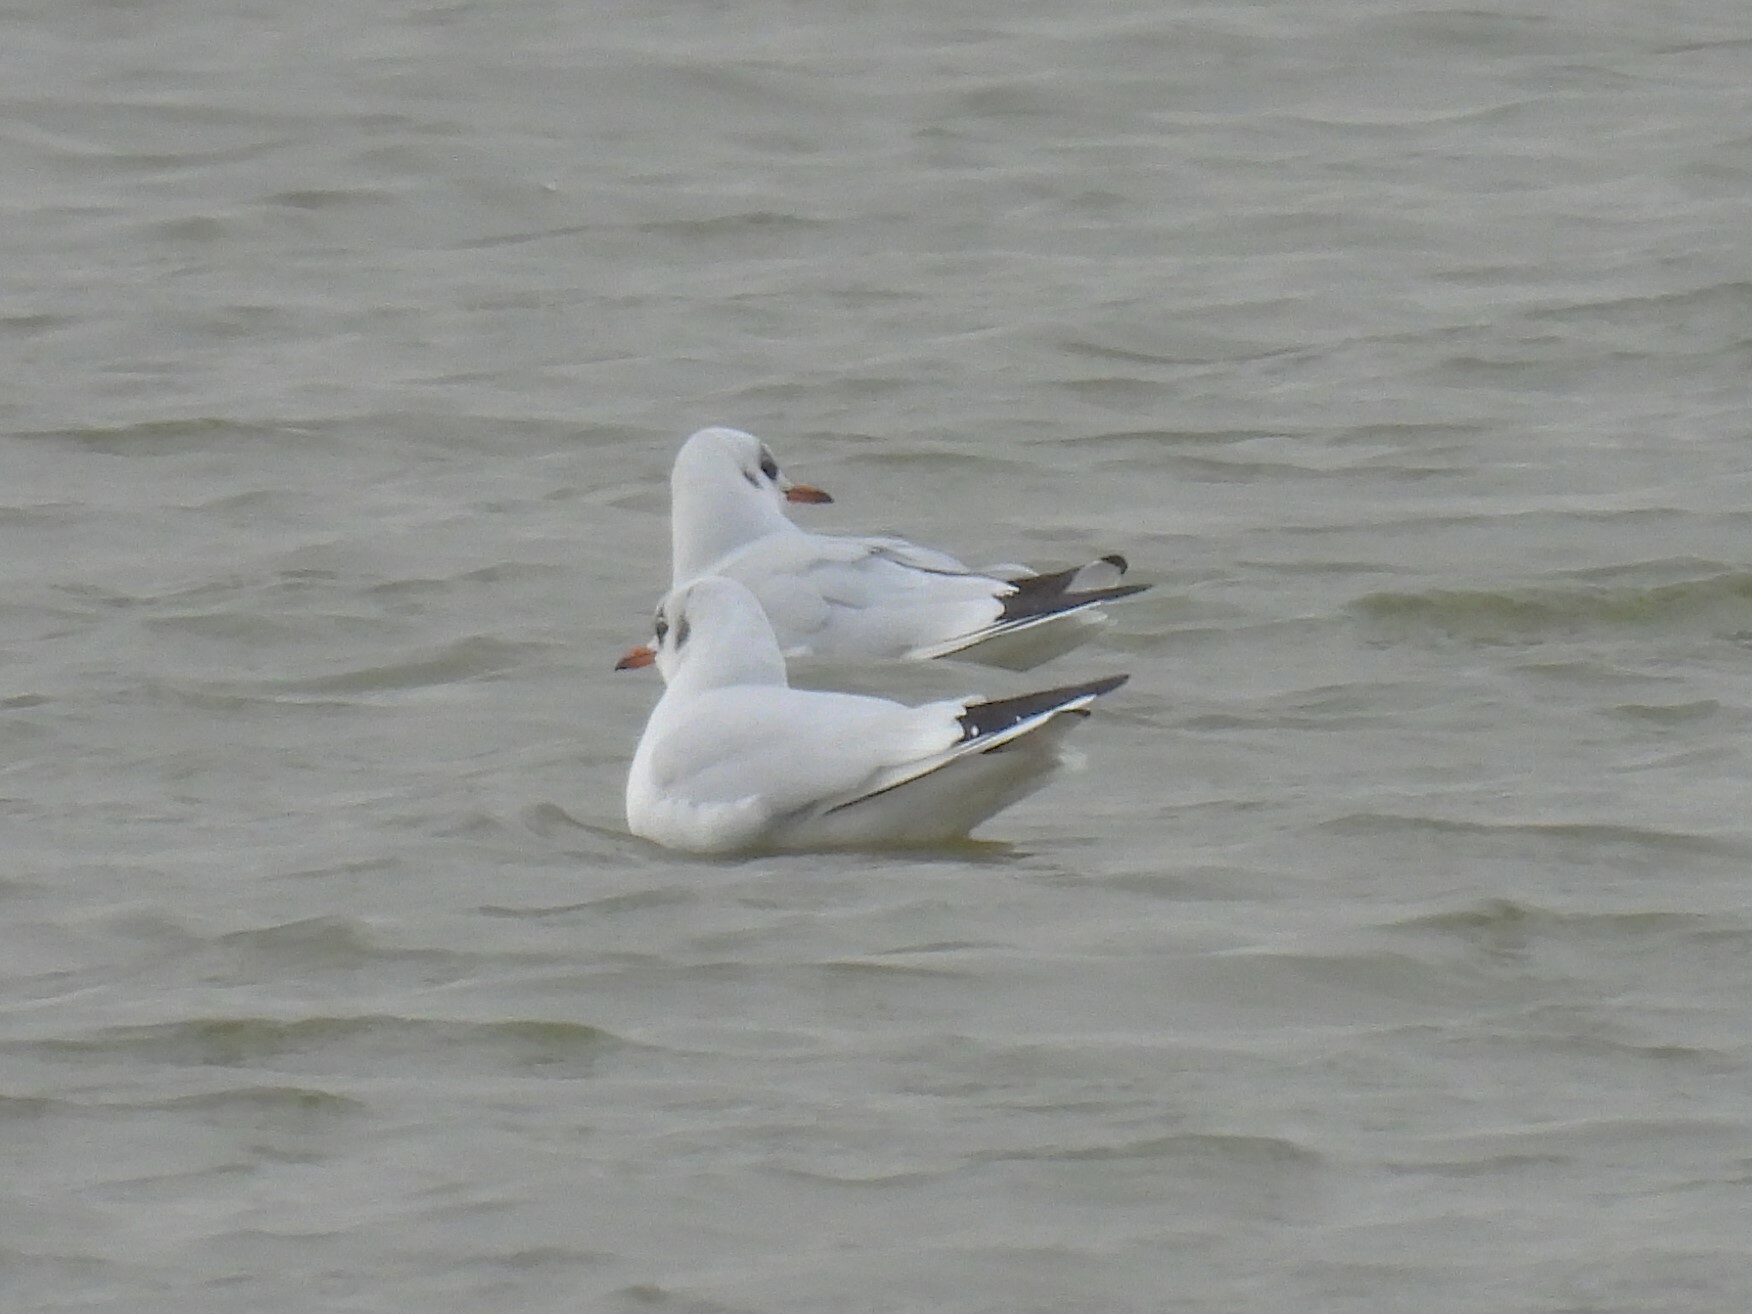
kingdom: Animalia
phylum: Chordata
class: Aves
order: Charadriiformes
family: Laridae
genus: Chroicocephalus
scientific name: Chroicocephalus ridibundus
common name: Black-headed gull
